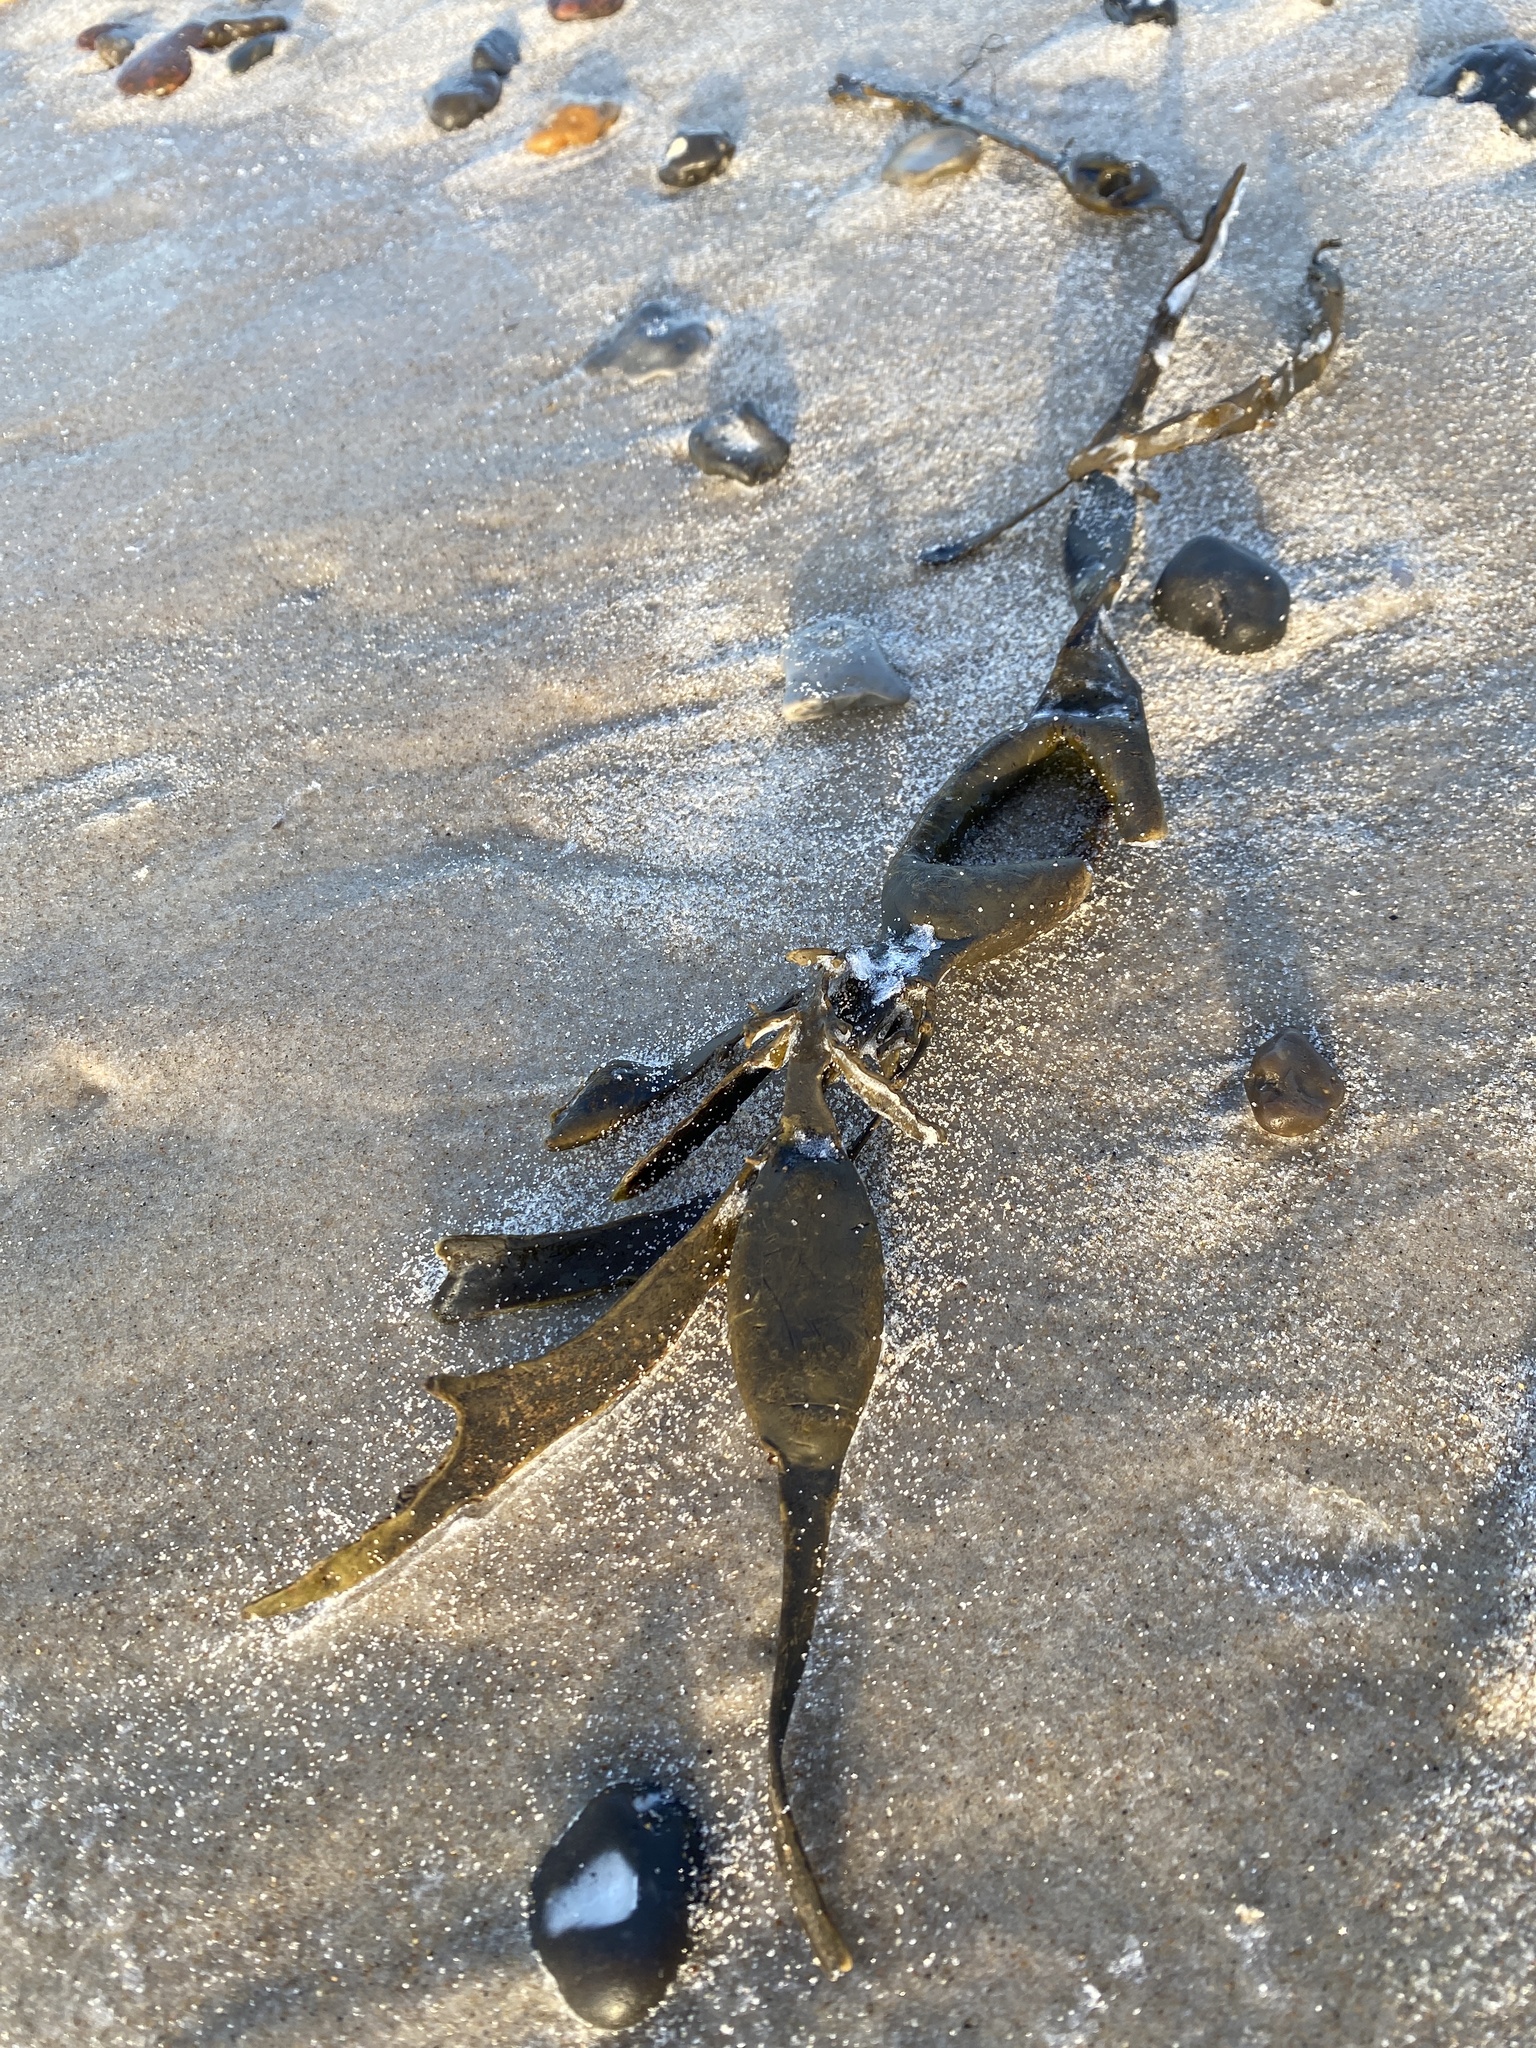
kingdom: Chromista
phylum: Ochrophyta
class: Phaeophyceae
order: Fucales
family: Fucaceae
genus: Ascophyllum
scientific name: Ascophyllum nodosum
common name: Knotted wrack
